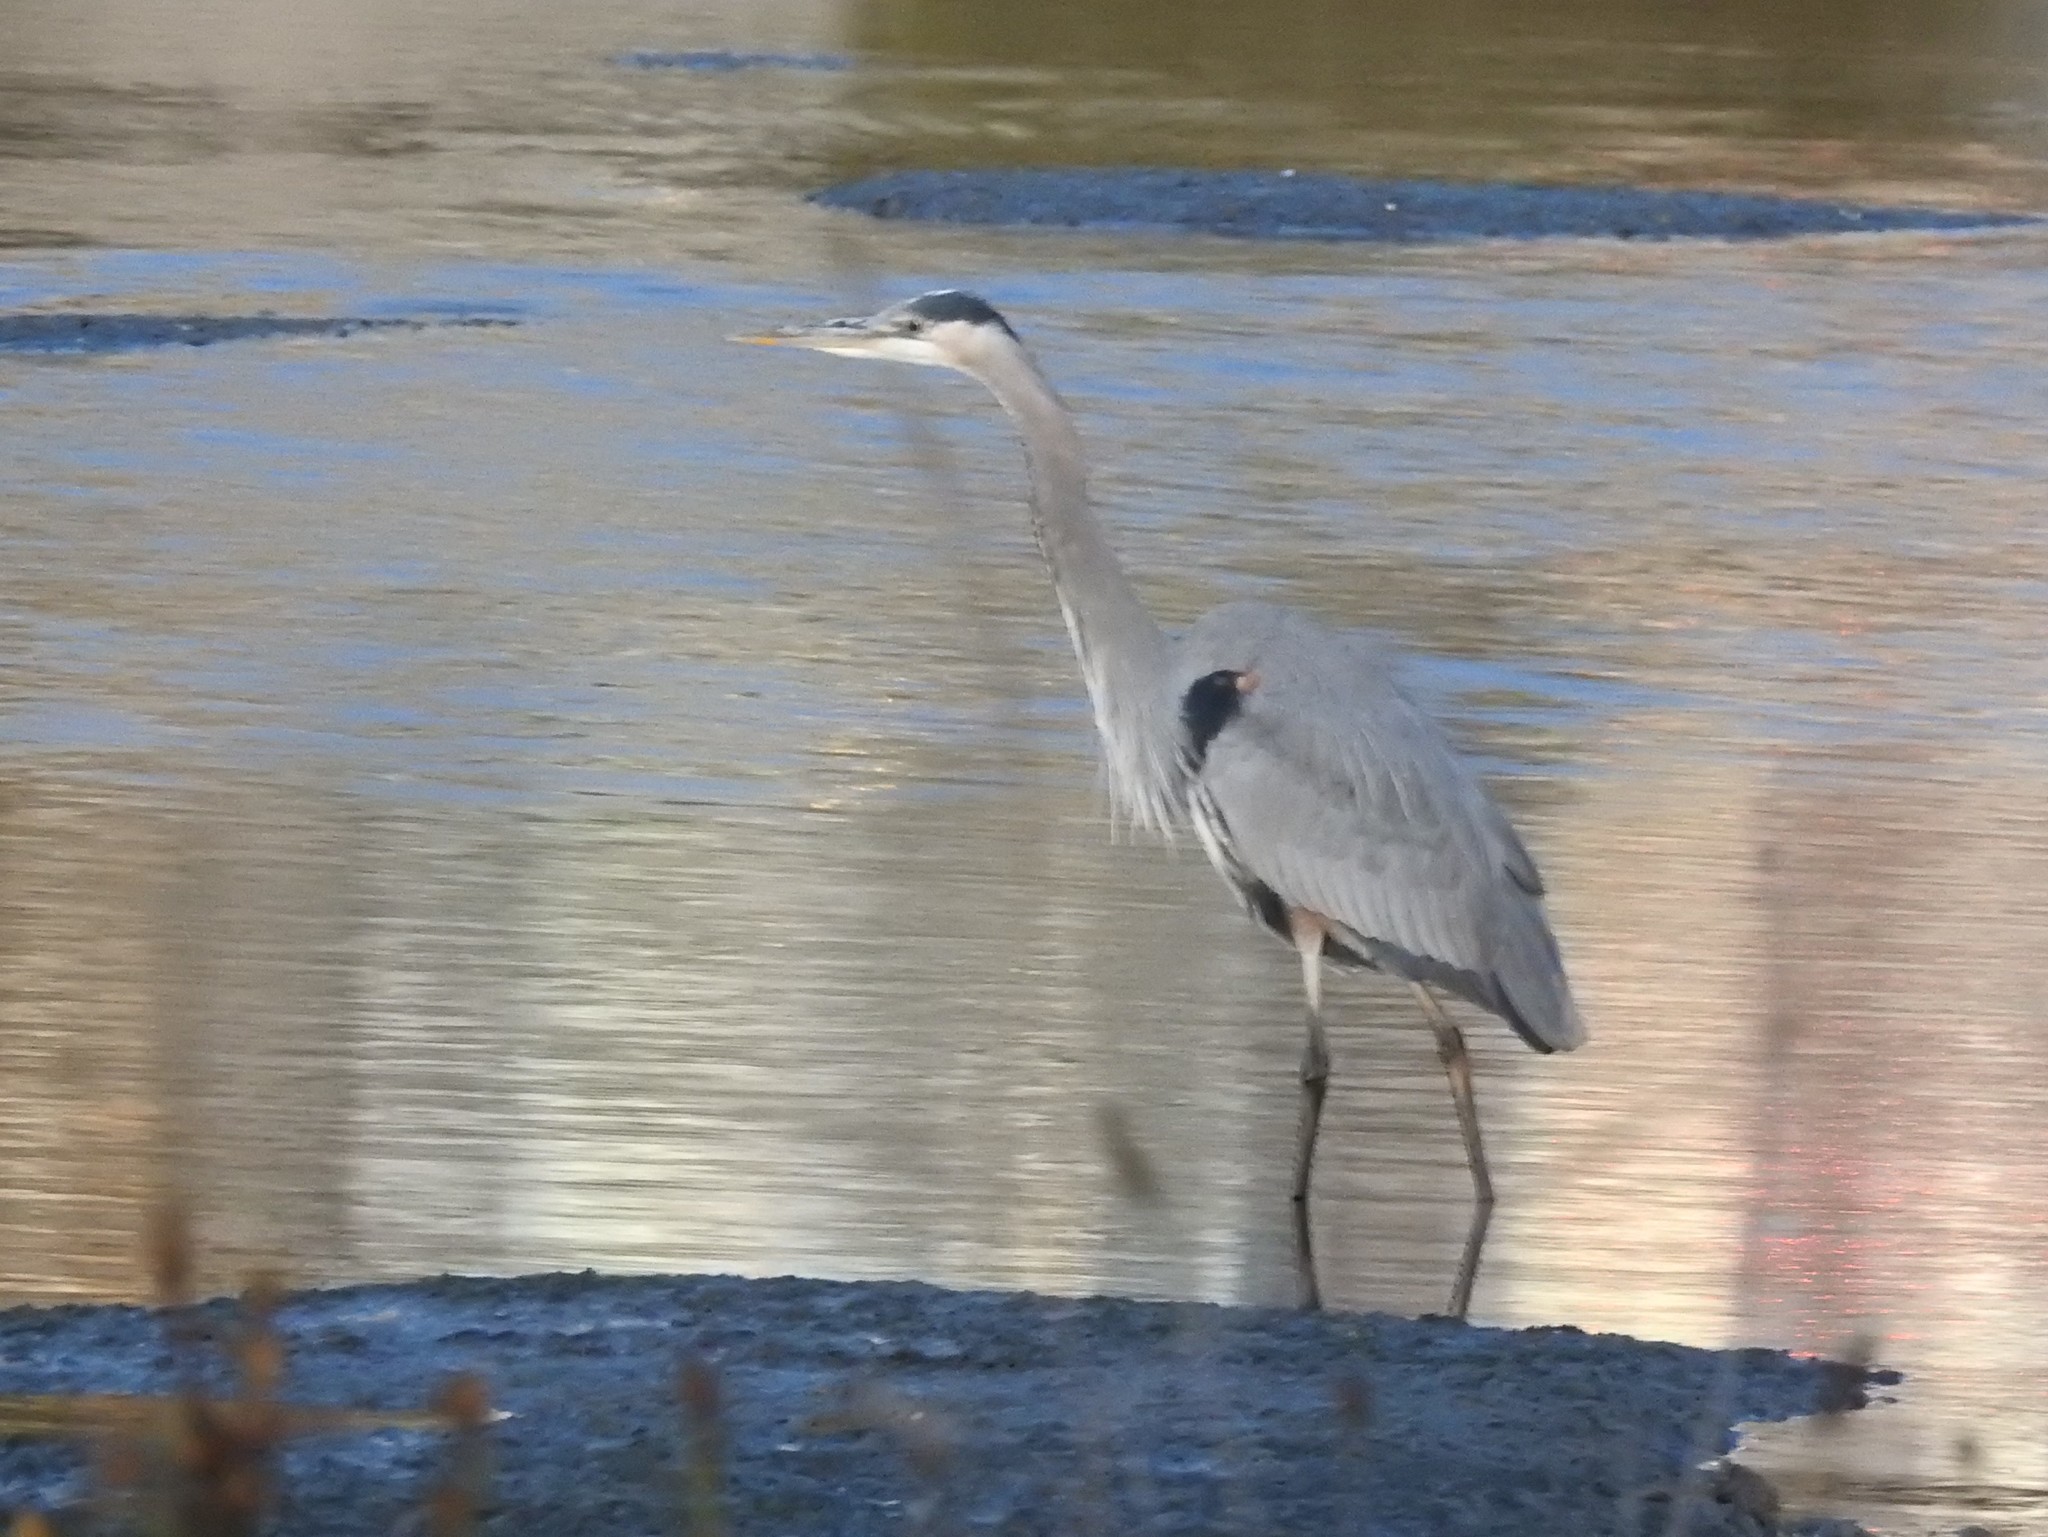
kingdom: Animalia
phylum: Chordata
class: Aves
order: Pelecaniformes
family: Ardeidae
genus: Ardea
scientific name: Ardea herodias
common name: Great blue heron
